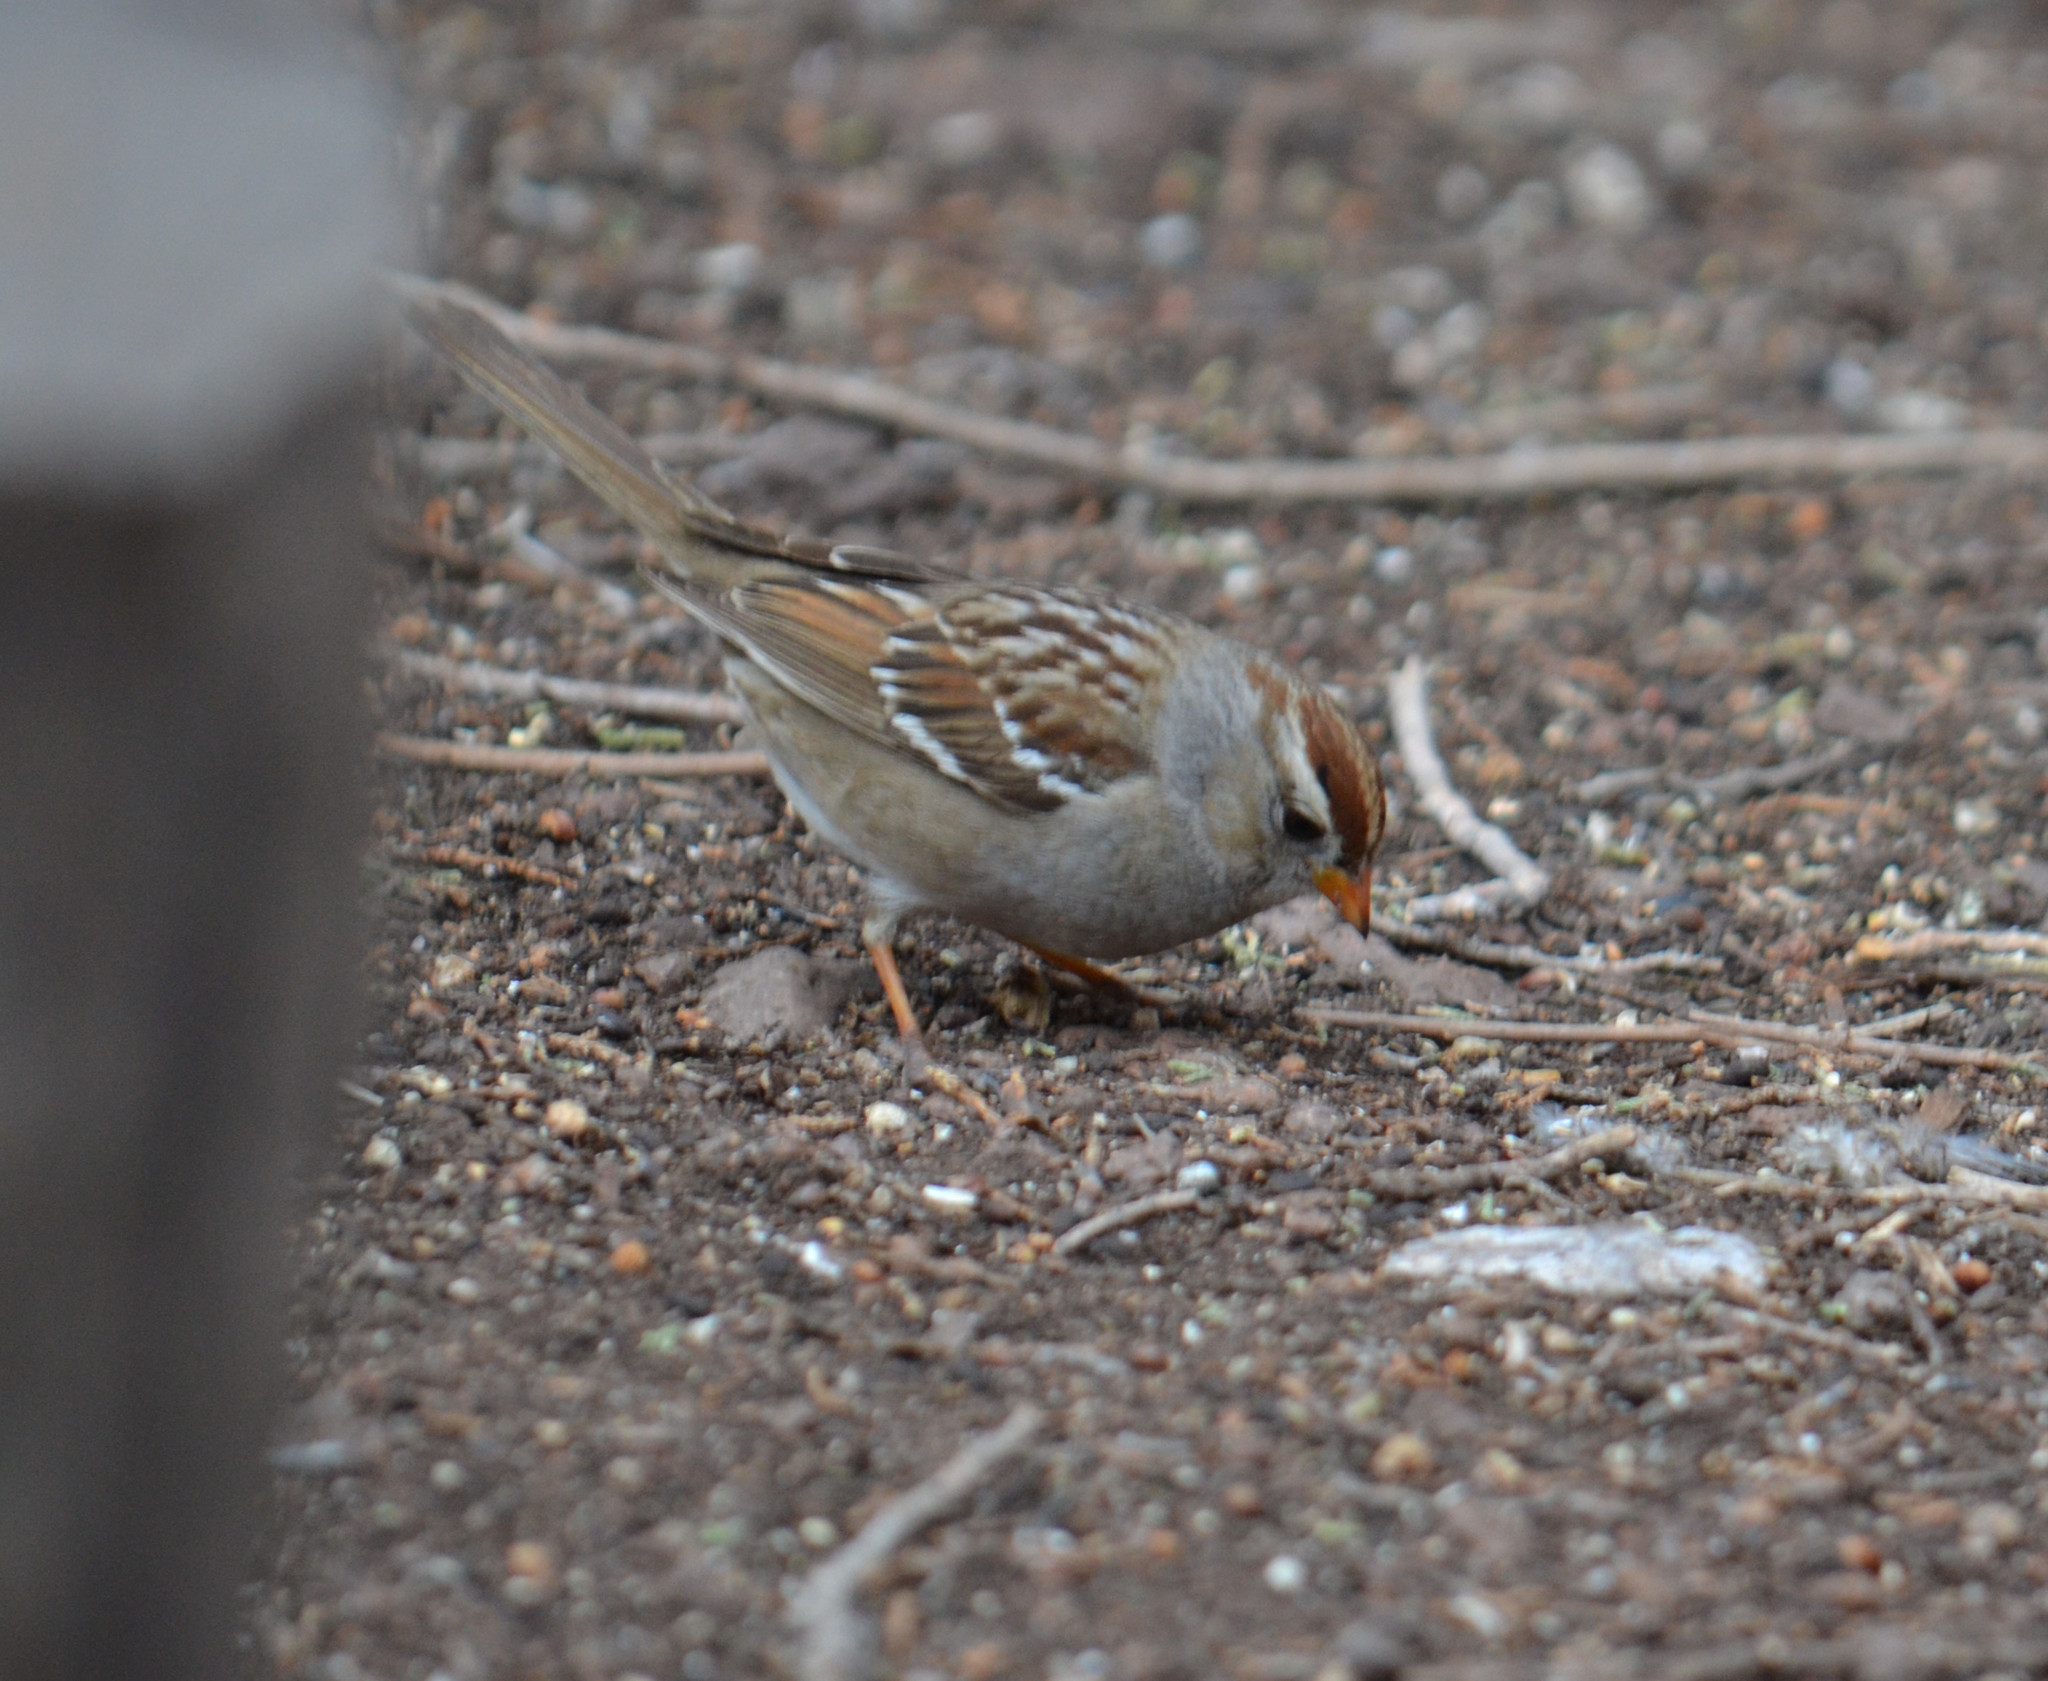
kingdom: Animalia
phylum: Chordata
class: Aves
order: Passeriformes
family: Passerellidae
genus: Zonotrichia
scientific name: Zonotrichia leucophrys
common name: White-crowned sparrow
